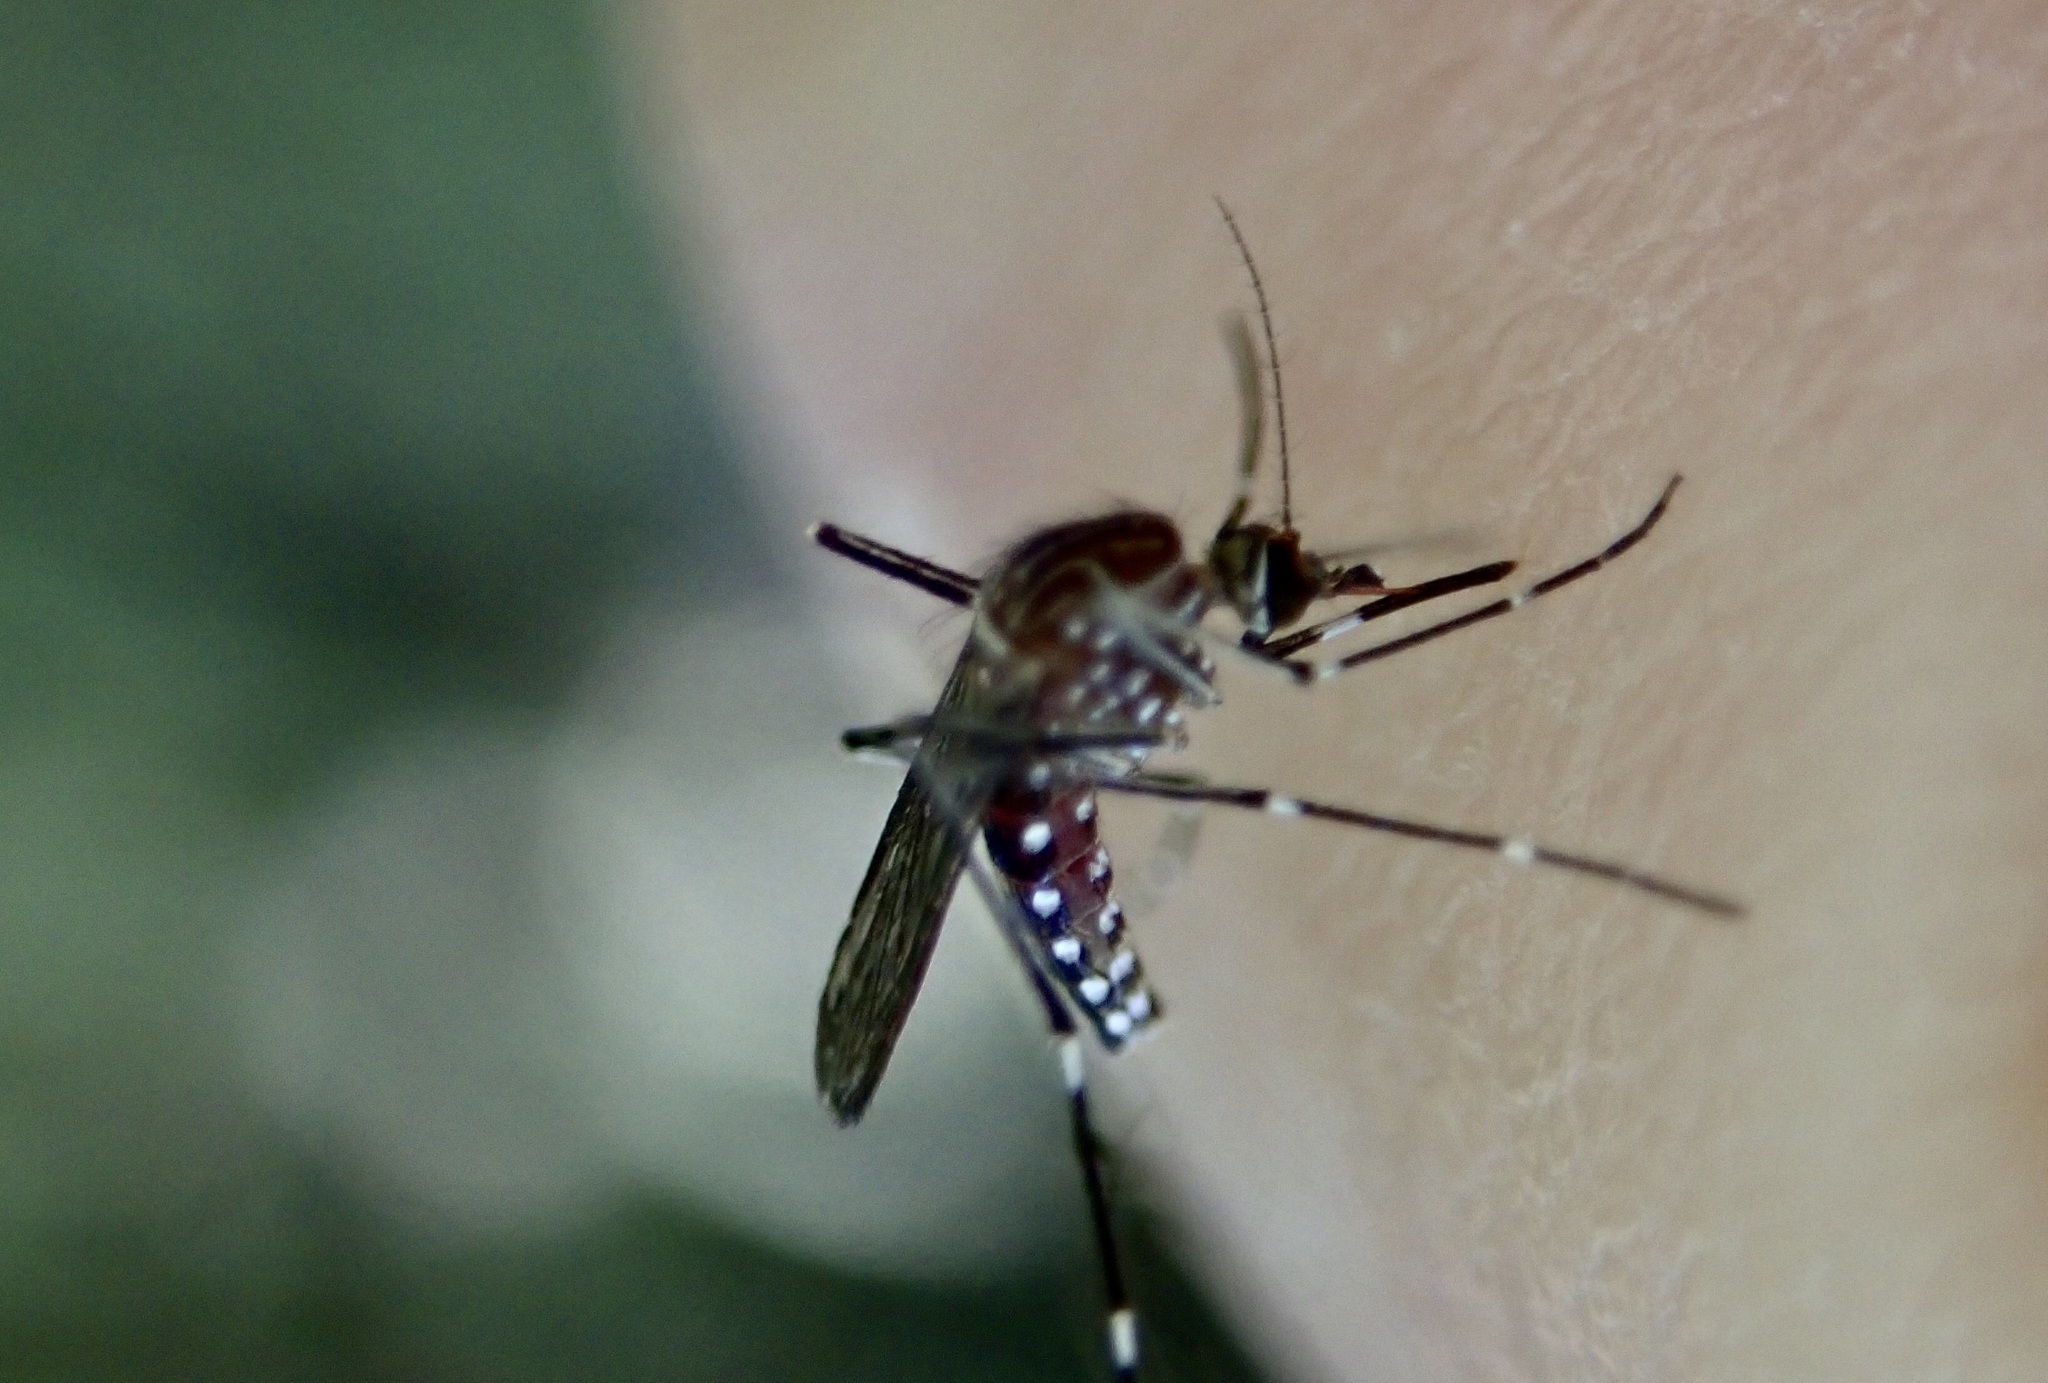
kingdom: Animalia
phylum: Arthropoda
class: Insecta
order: Diptera
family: Culicidae
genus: Aedes
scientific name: Aedes notoscriptus
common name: Australian backyard mosquito
